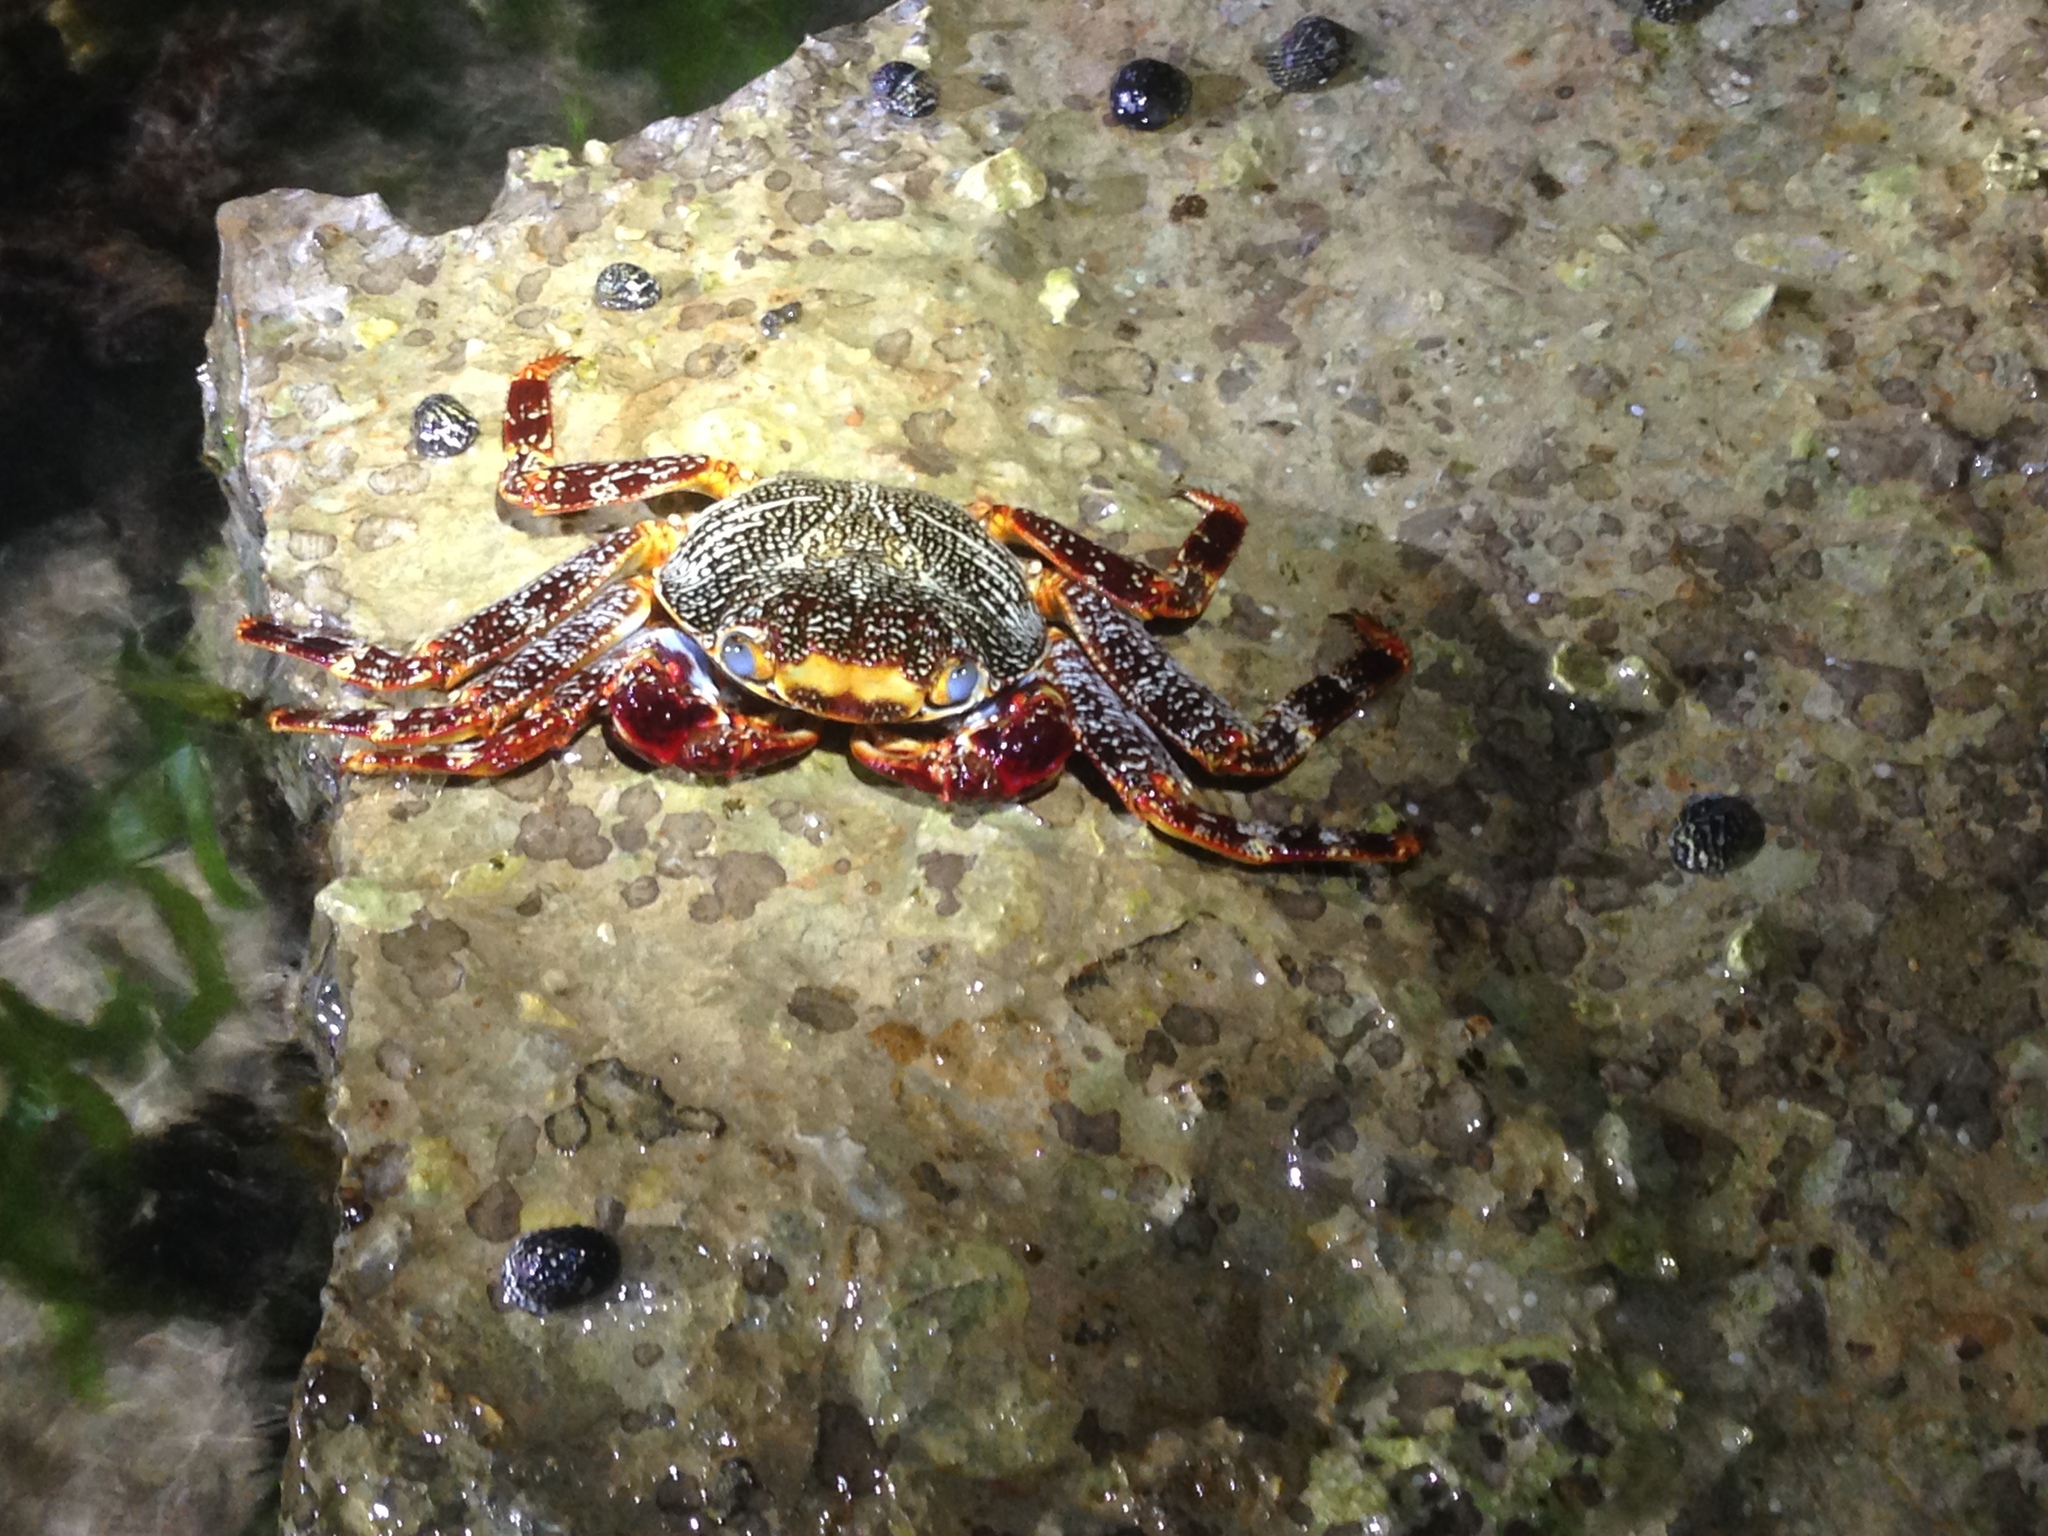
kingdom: Animalia
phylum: Arthropoda
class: Malacostraca
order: Decapoda
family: Grapsidae
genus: Grapsus
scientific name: Grapsus grapsus
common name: Sally lightfoot
